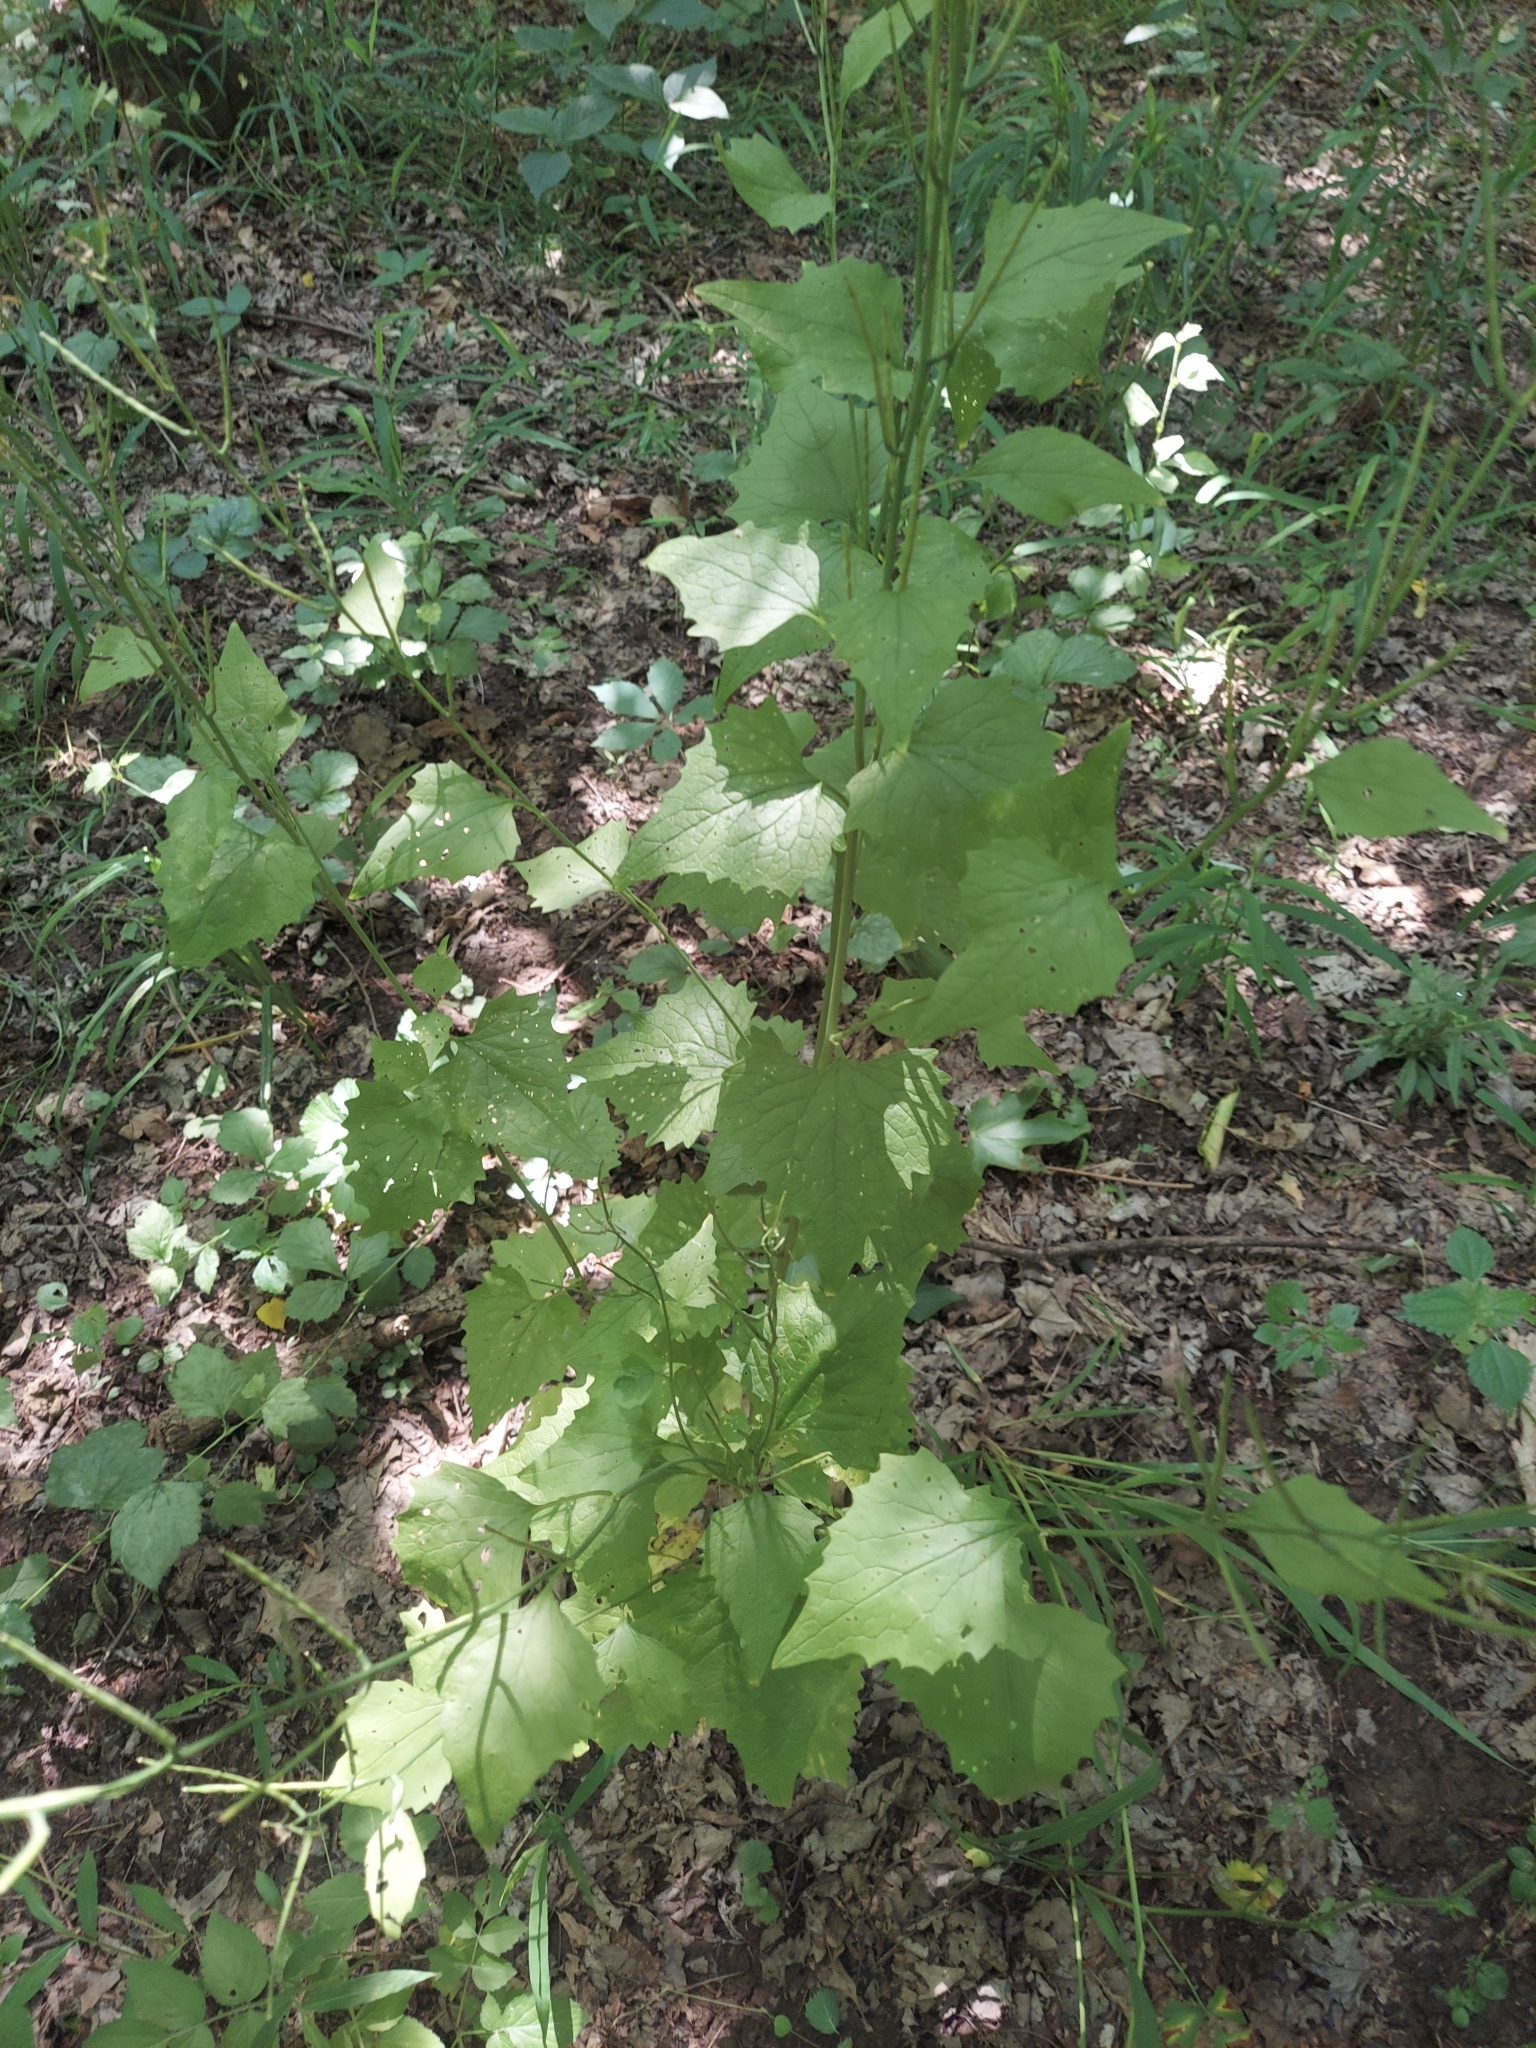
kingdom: Plantae
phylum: Tracheophyta
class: Magnoliopsida
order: Brassicales
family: Brassicaceae
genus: Alliaria
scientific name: Alliaria petiolata
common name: Garlic mustard
